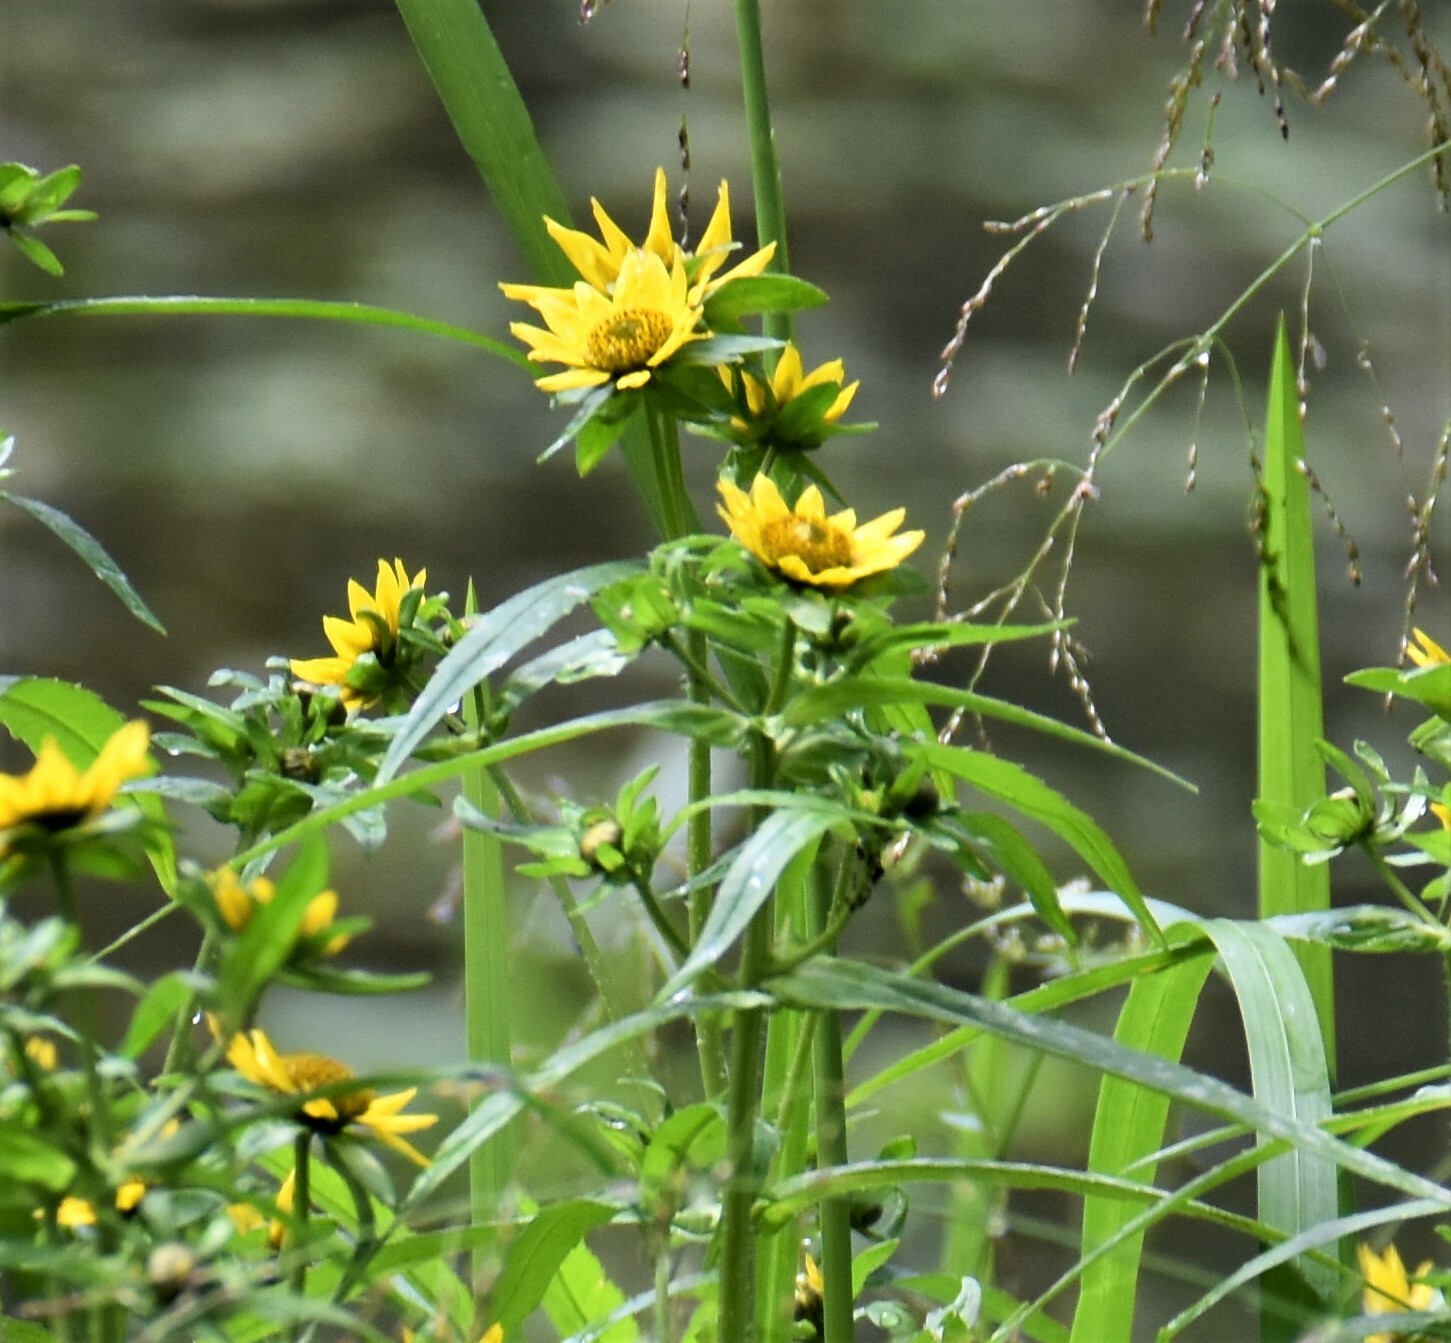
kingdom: Plantae
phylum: Tracheophyta
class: Magnoliopsida
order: Asterales
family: Asteraceae
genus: Bidens
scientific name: Bidens cernua
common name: Nodding bur-marigold
